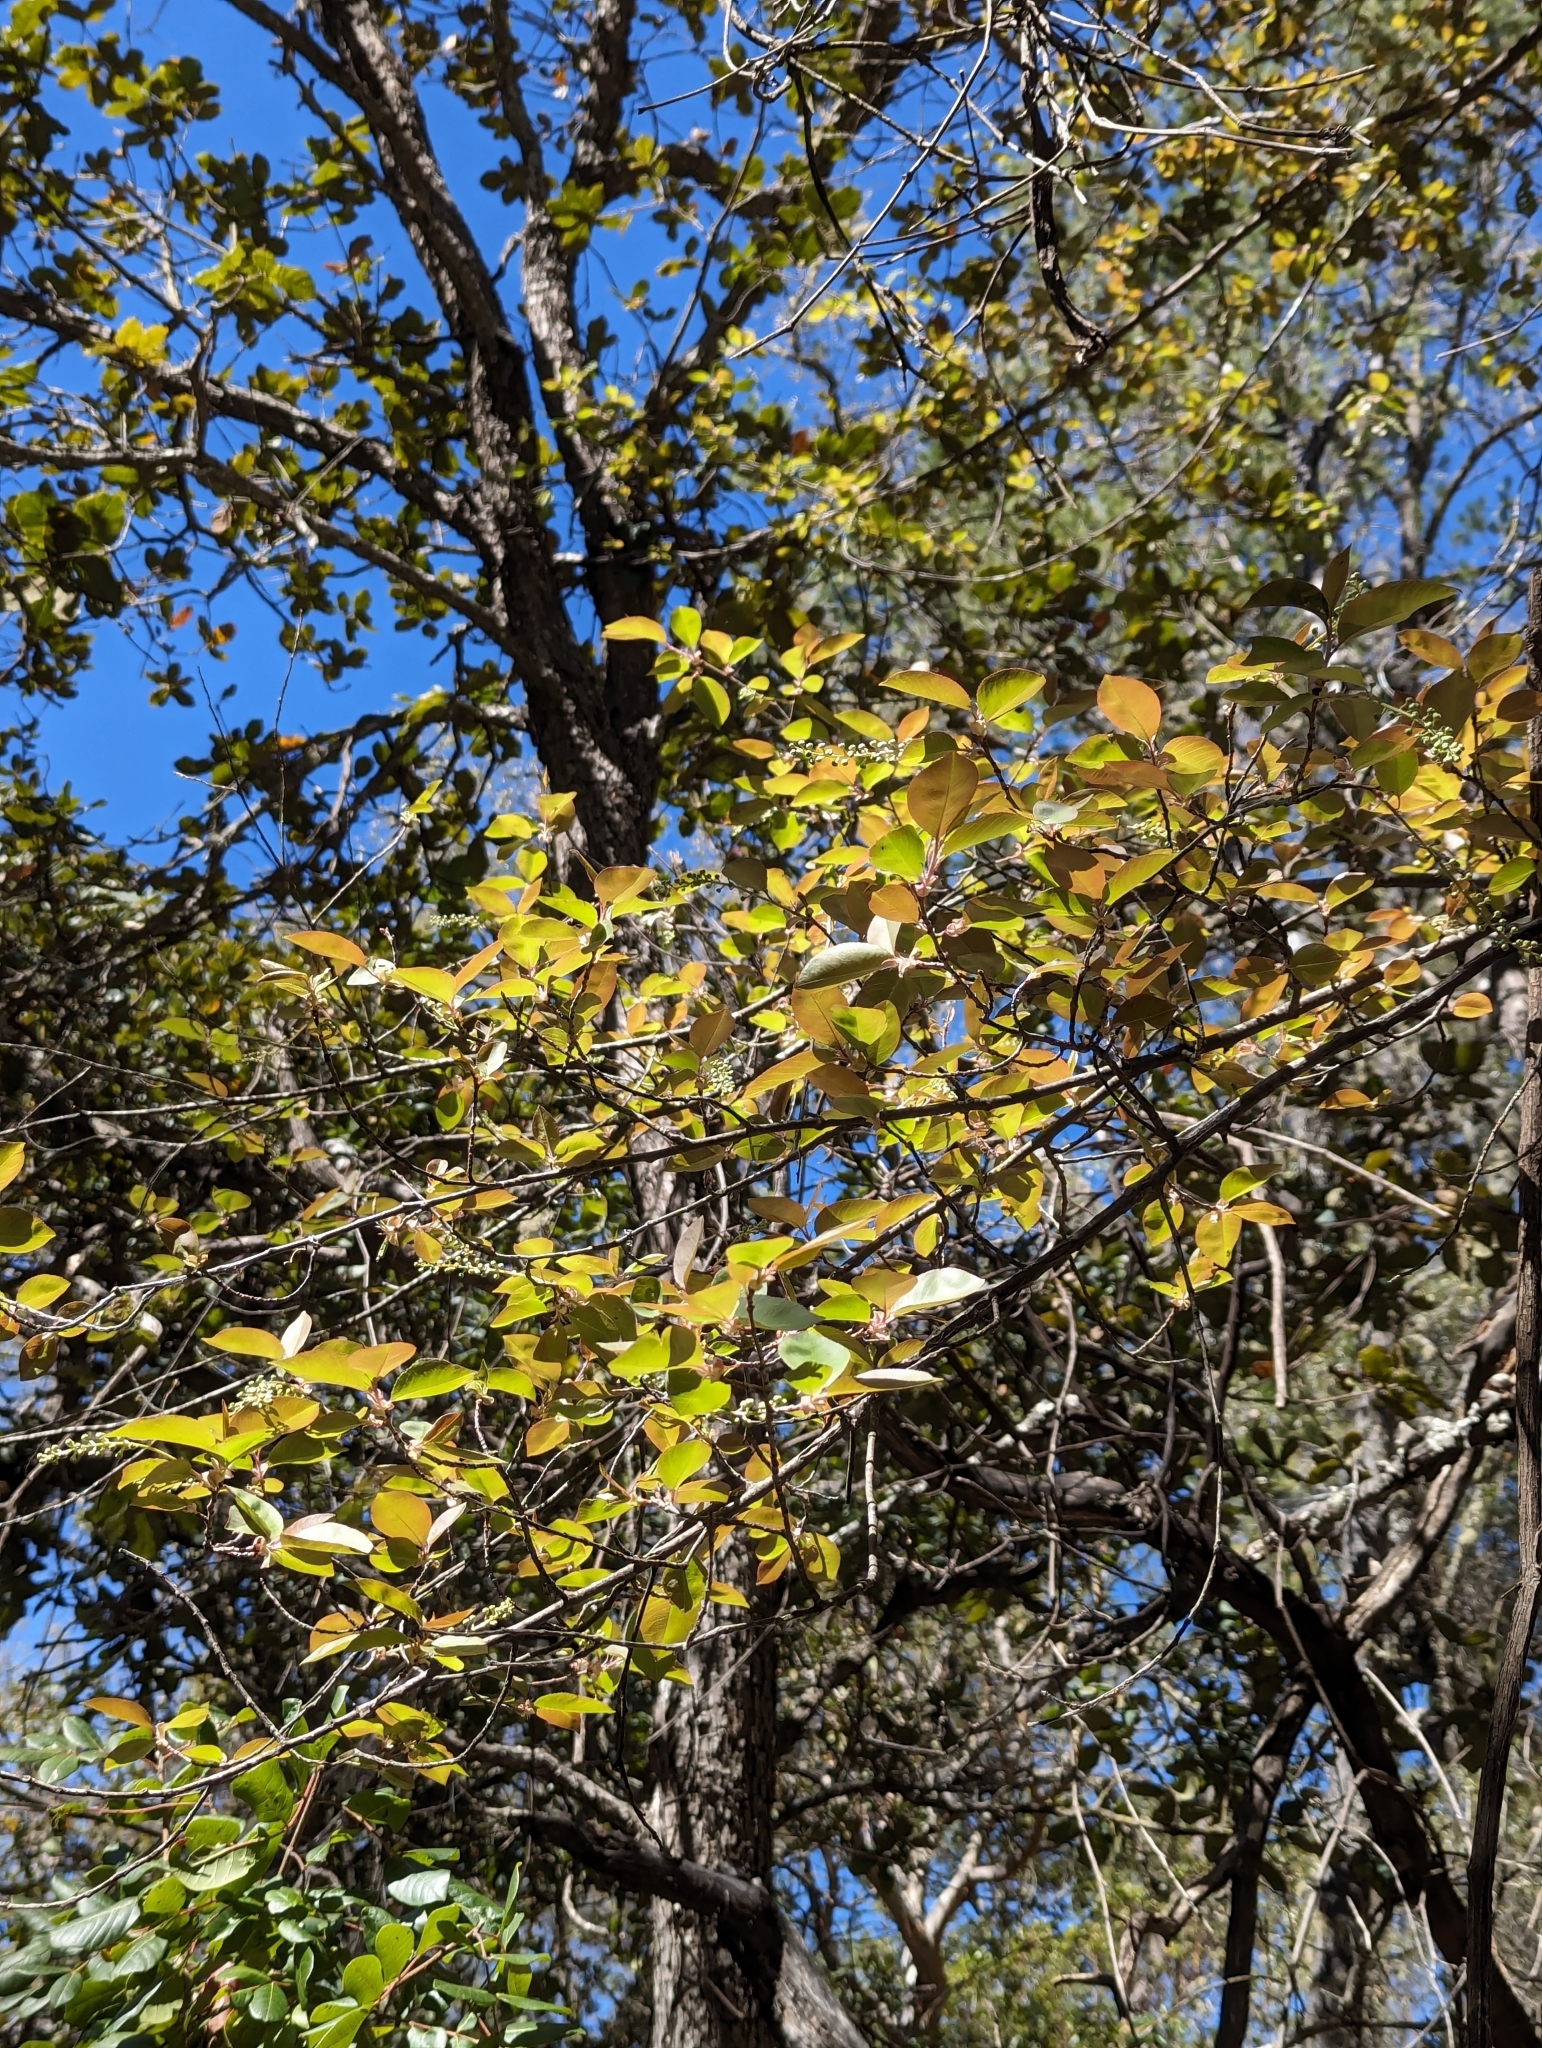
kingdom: Plantae
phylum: Tracheophyta
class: Magnoliopsida
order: Rosales
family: Rosaceae
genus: Prunus
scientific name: Prunus serotina
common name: Black cherry
